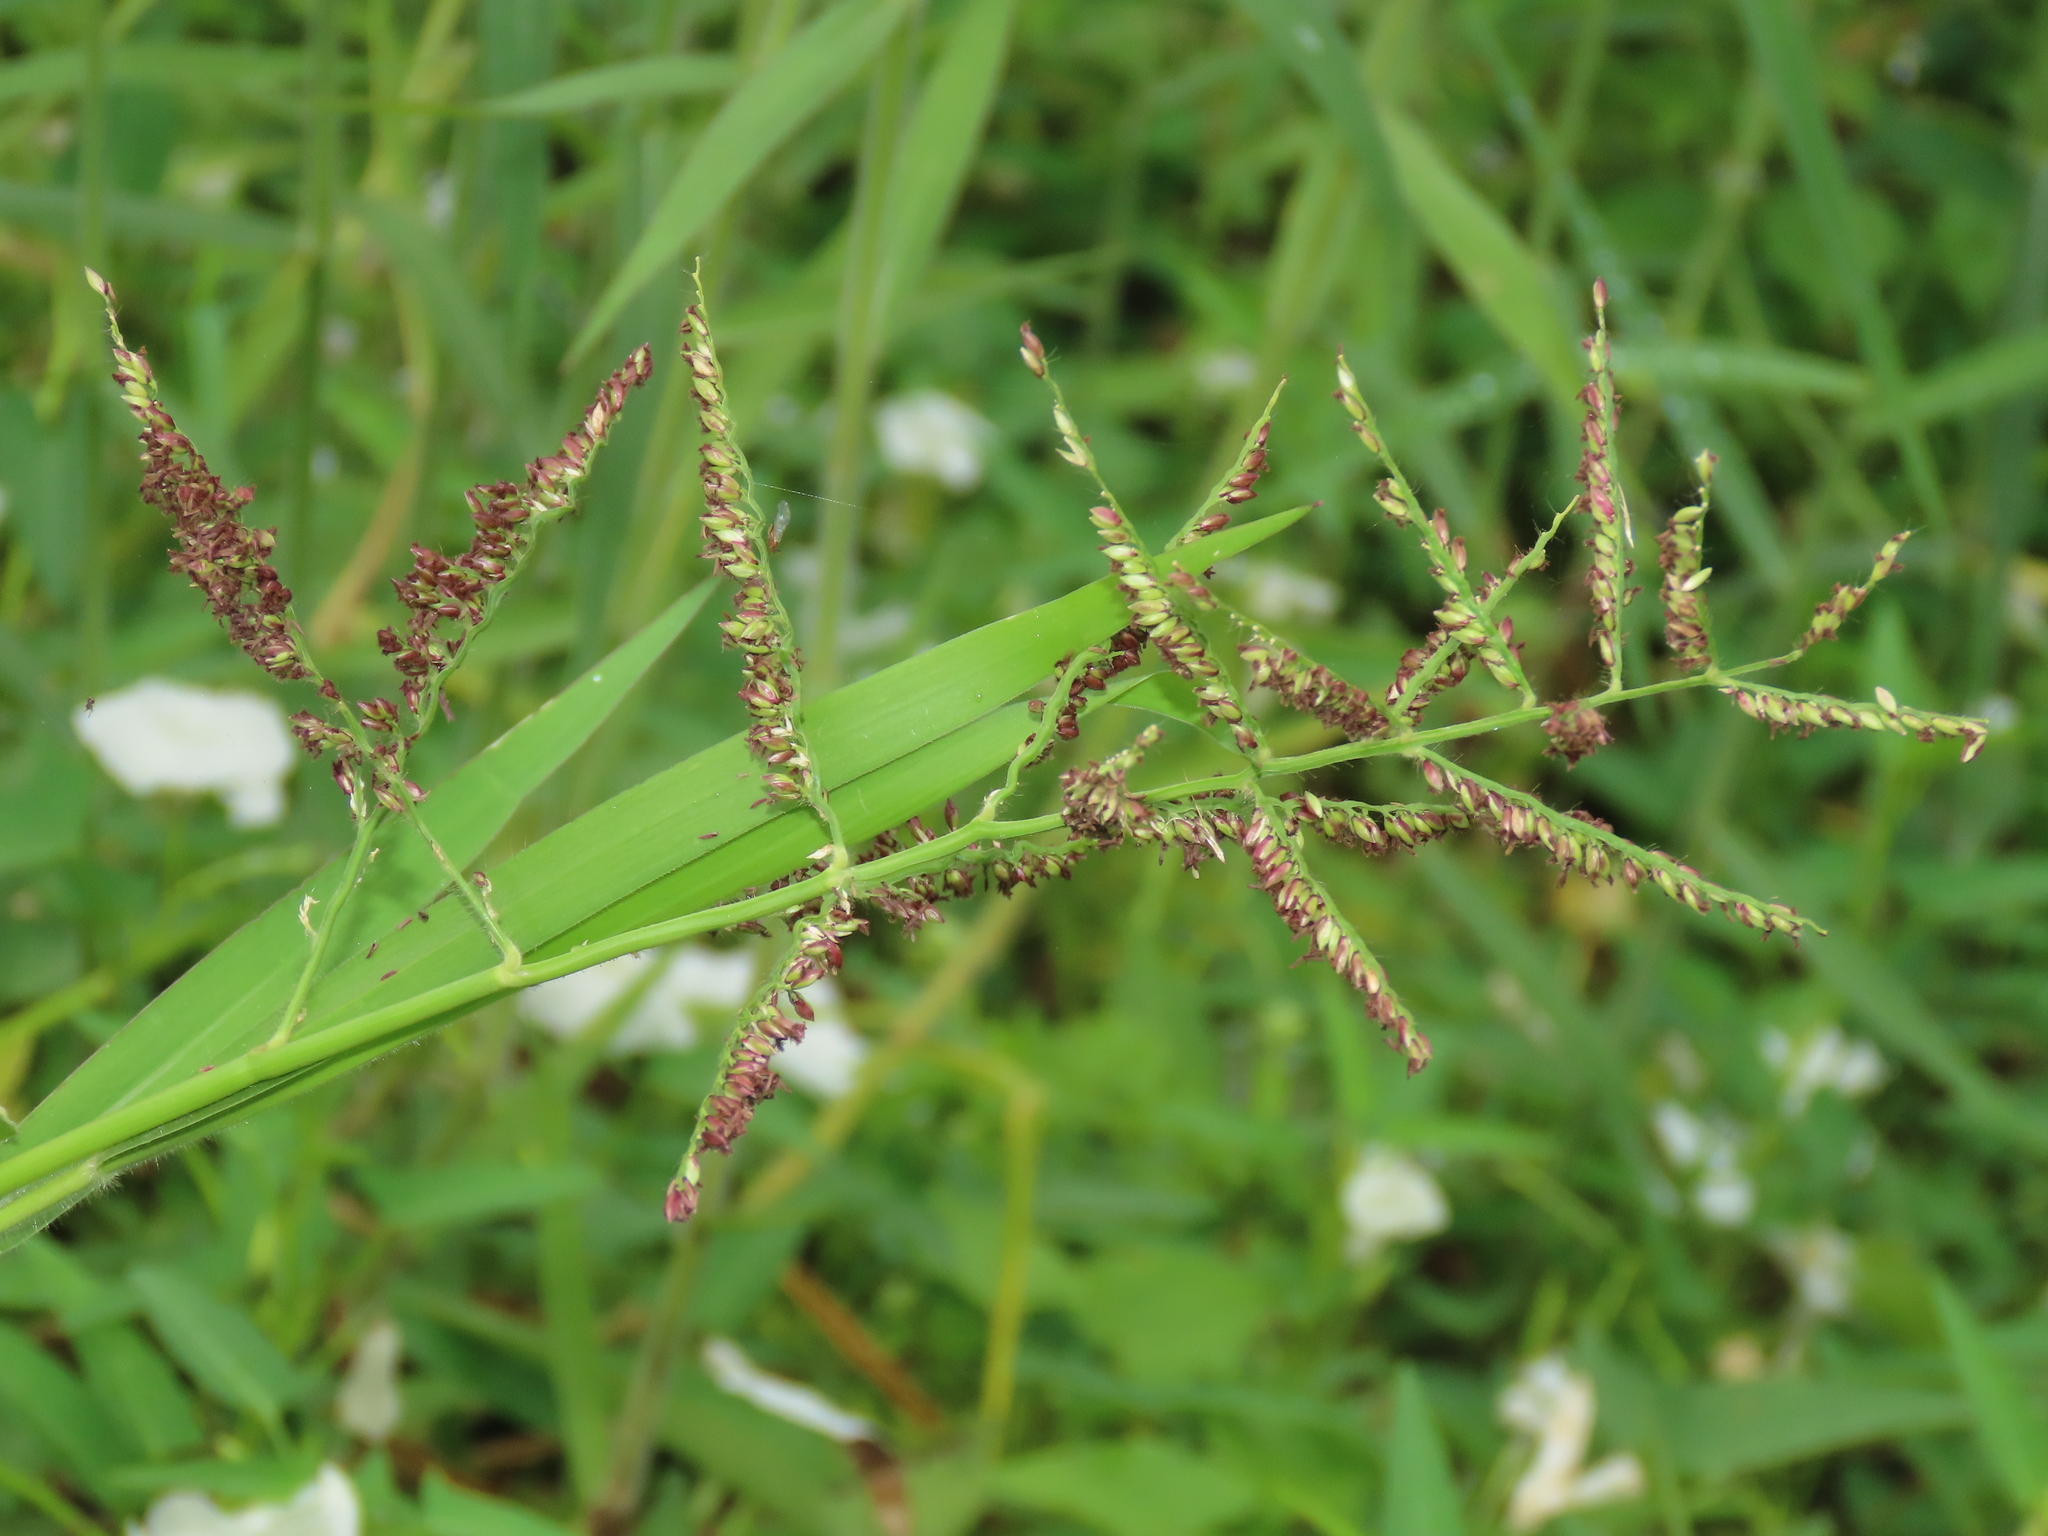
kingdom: Plantae
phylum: Tracheophyta
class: Liliopsida
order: Poales
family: Poaceae
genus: Urochloa
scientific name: Urochloa mutica
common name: Para grass
